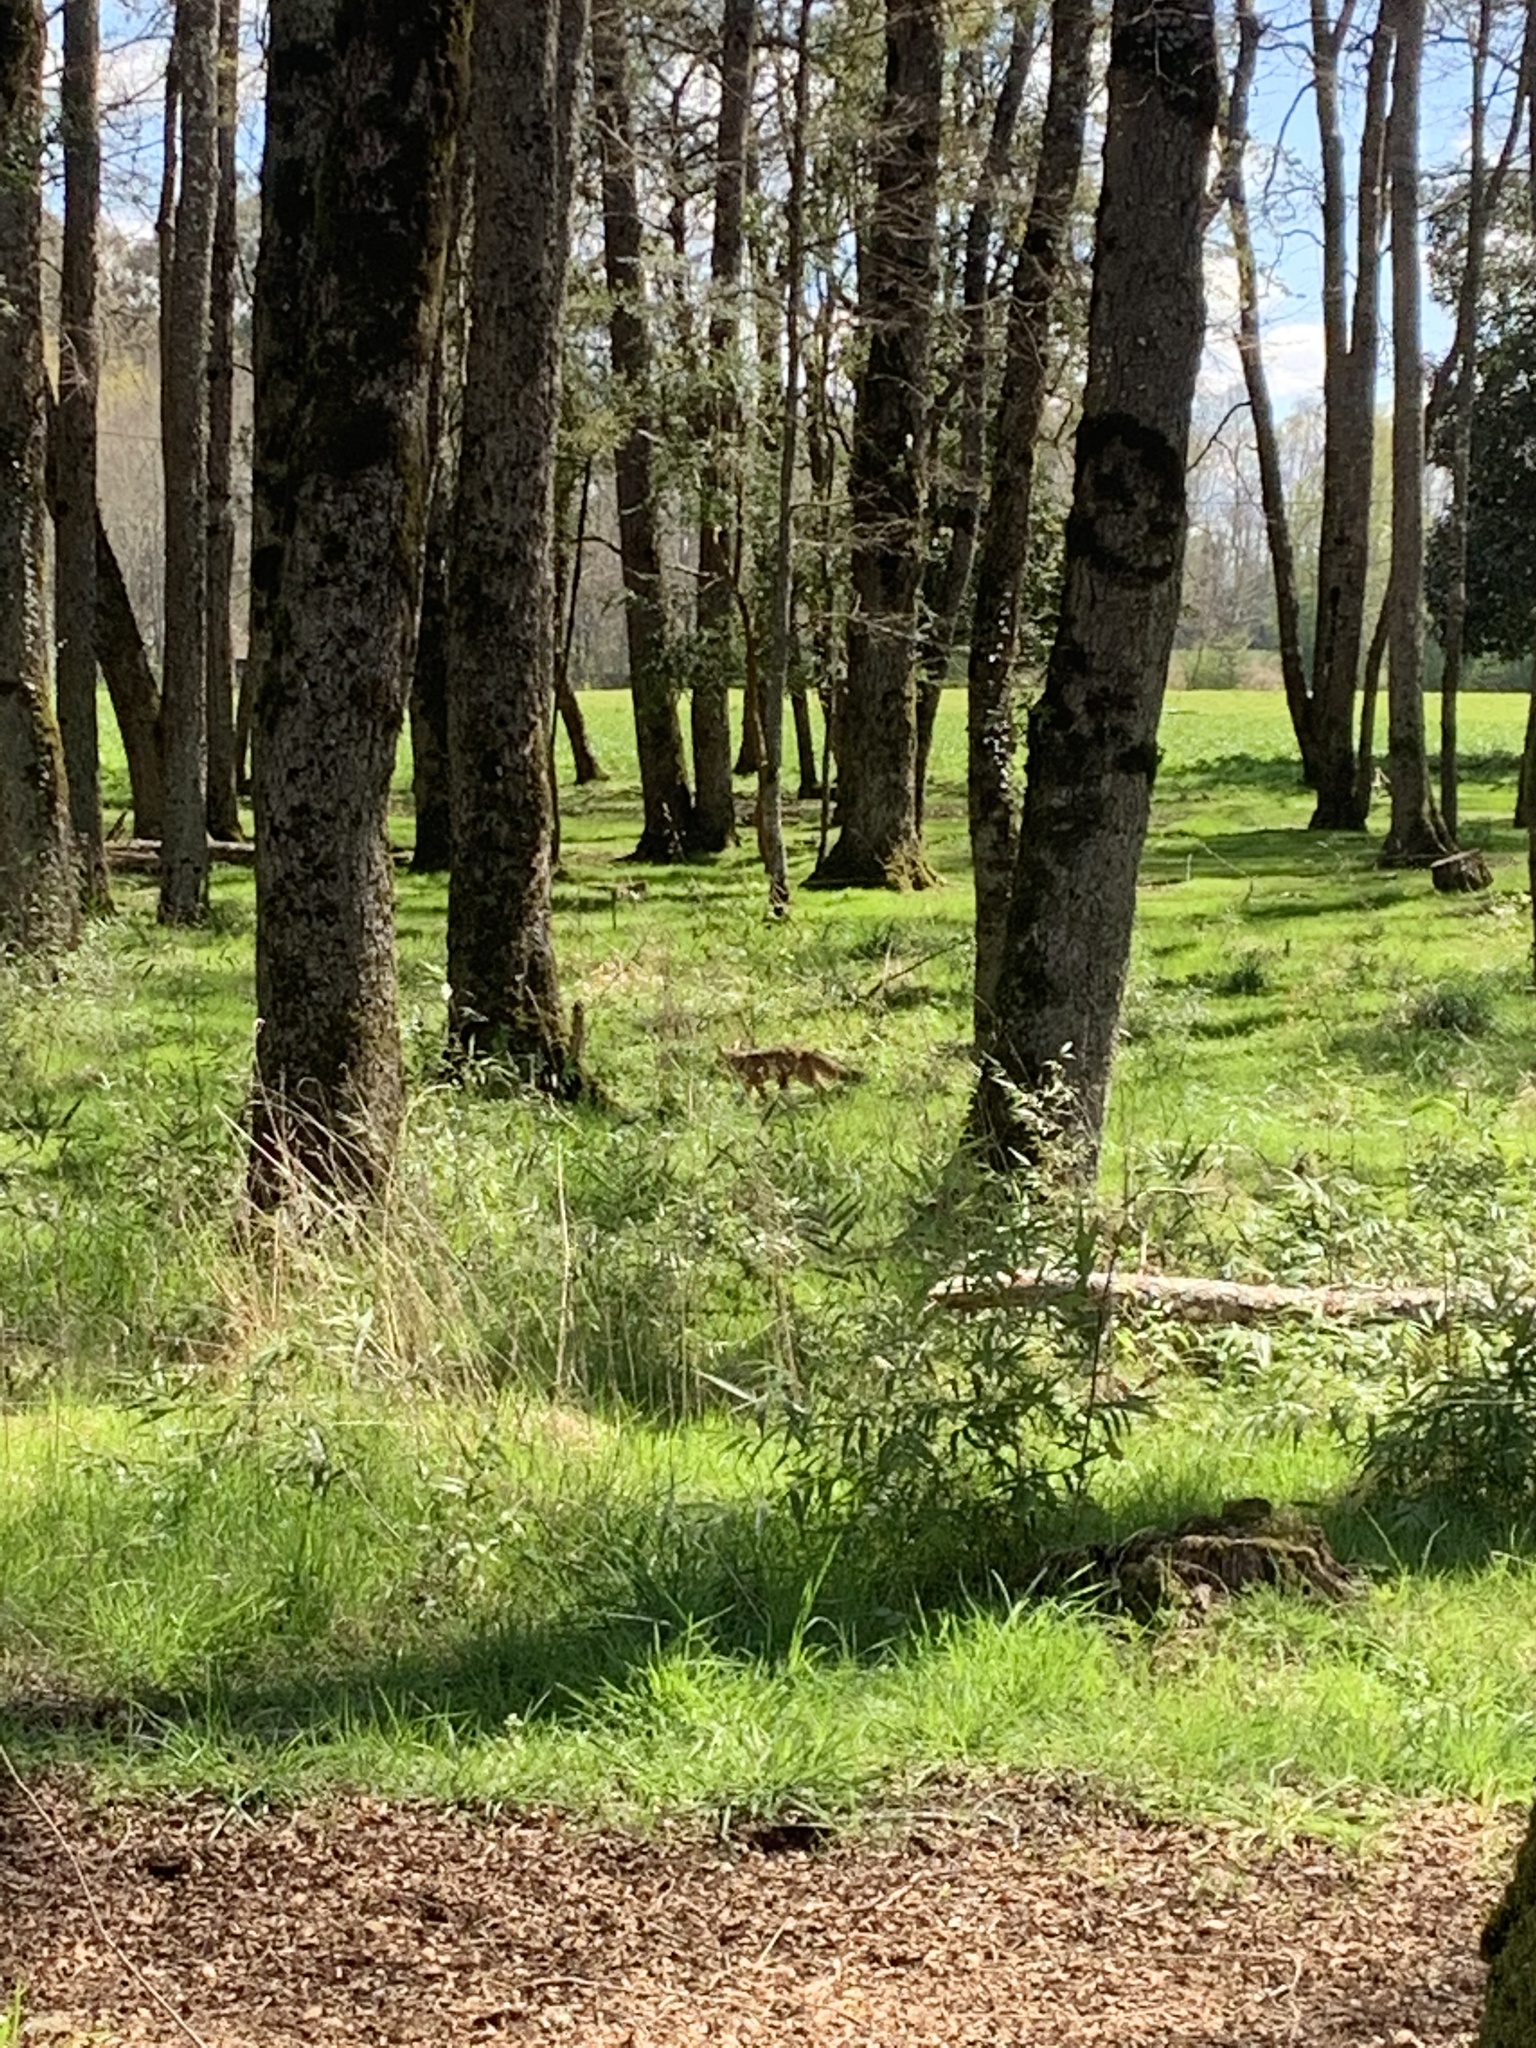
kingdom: Animalia
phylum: Chordata
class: Mammalia
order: Carnivora
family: Canidae
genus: Lycalopex
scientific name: Lycalopex culpaeus
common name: Culpeo
